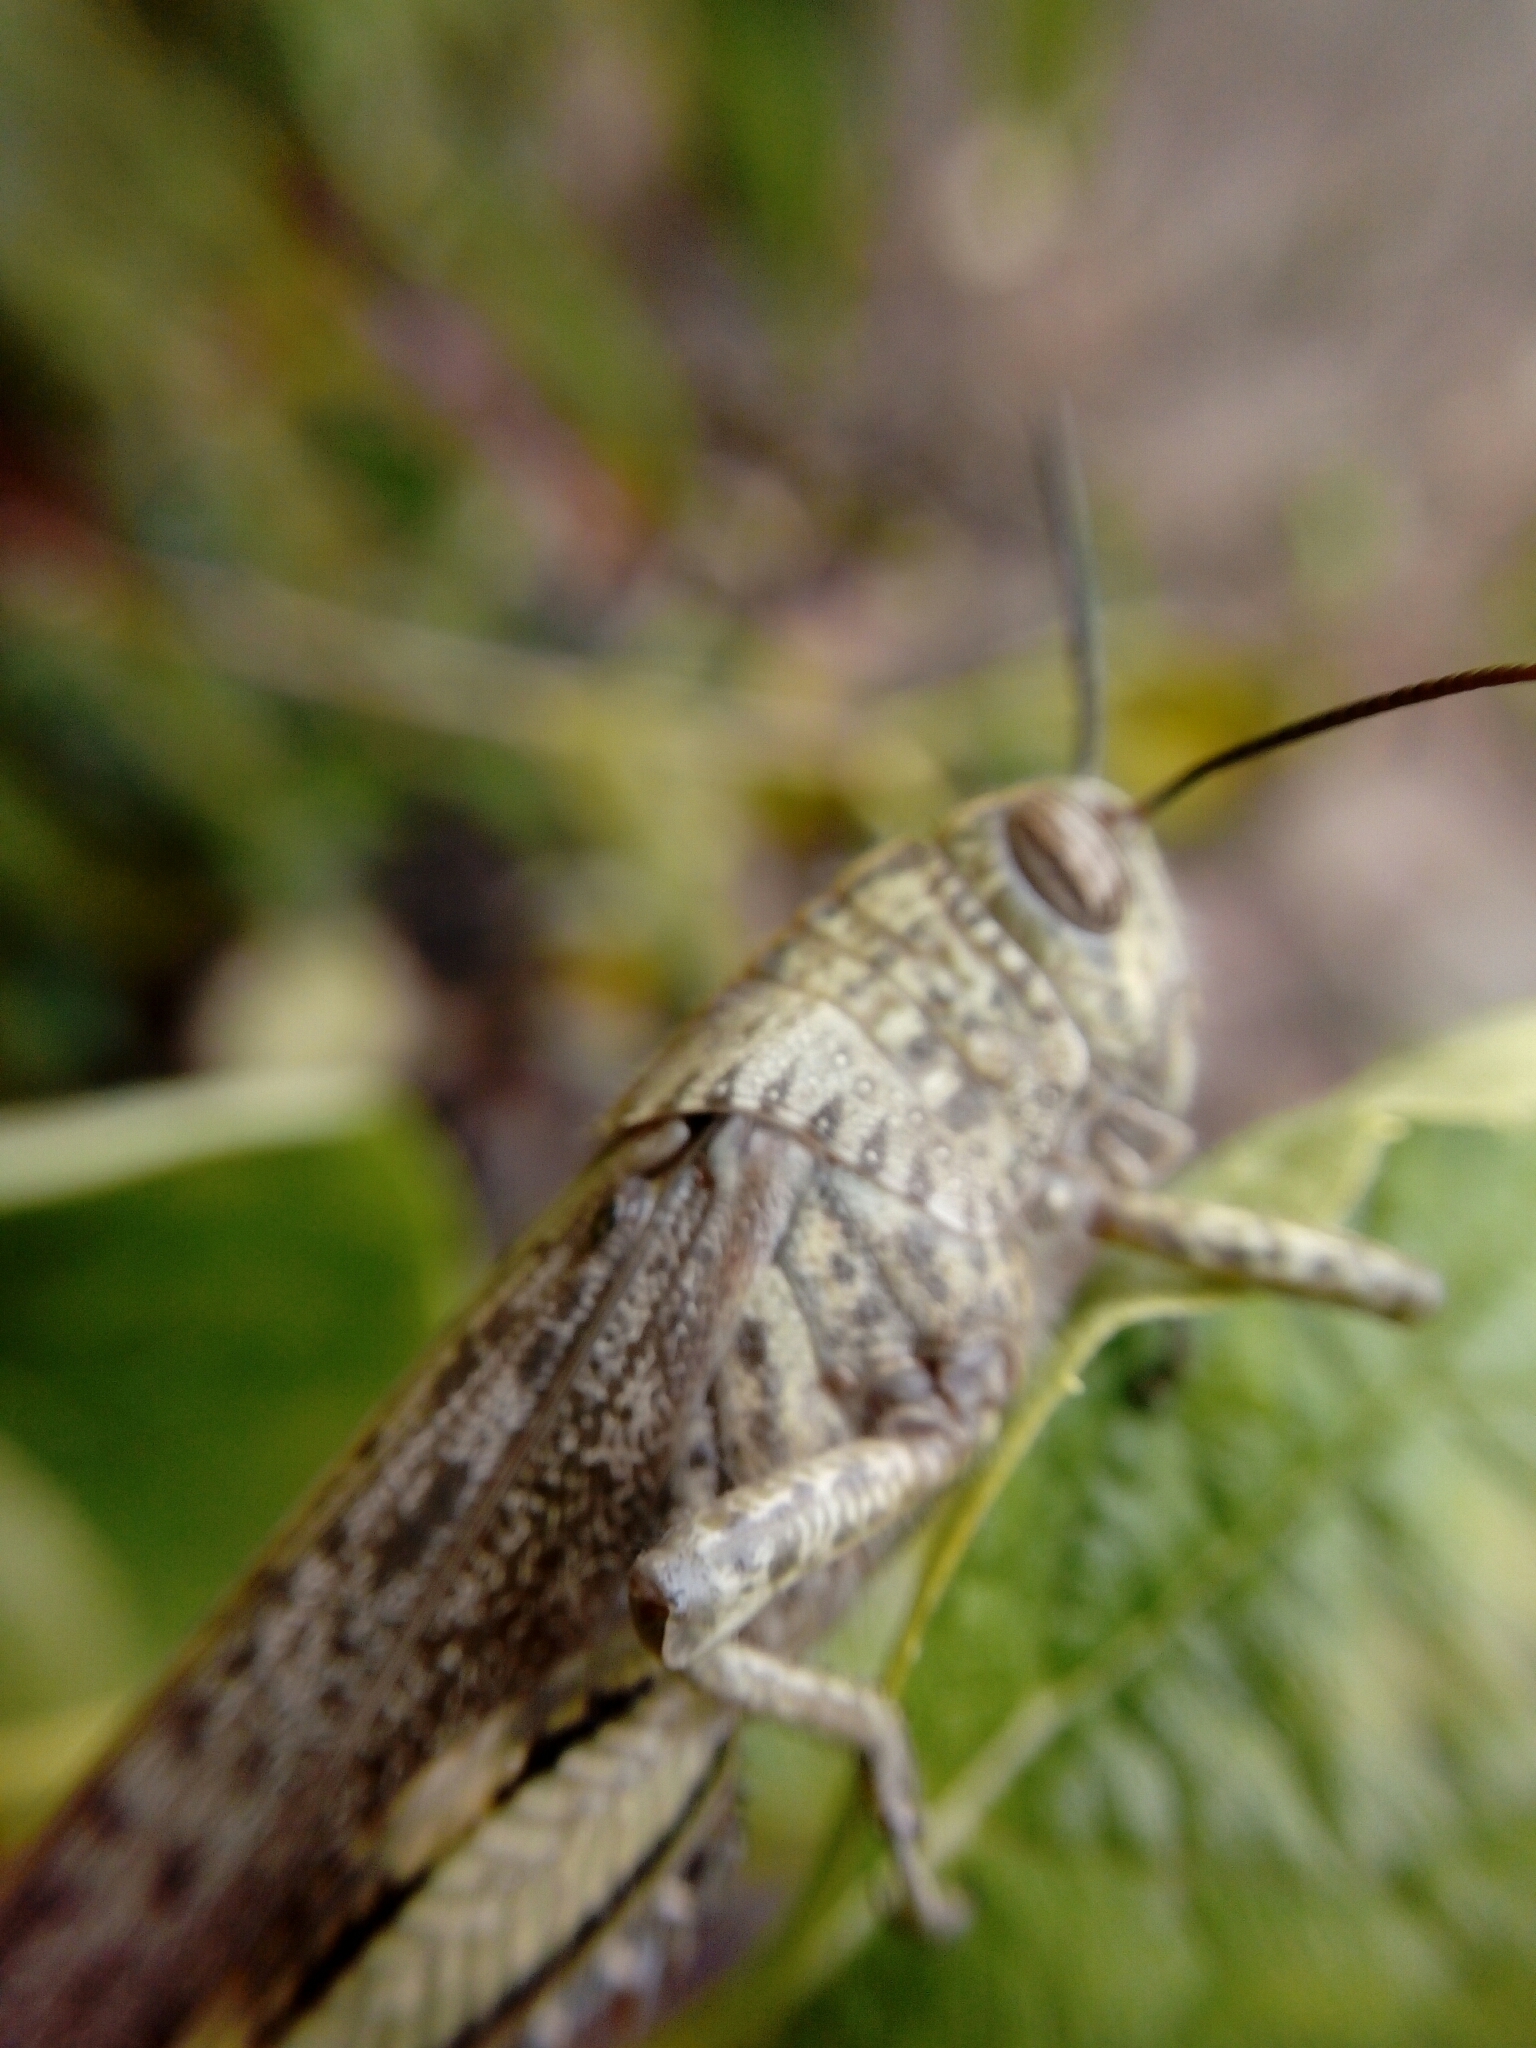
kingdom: Animalia
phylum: Arthropoda
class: Insecta
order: Orthoptera
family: Acrididae
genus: Anacridium
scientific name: Anacridium aegyptium
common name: Egyptian grasshopper
